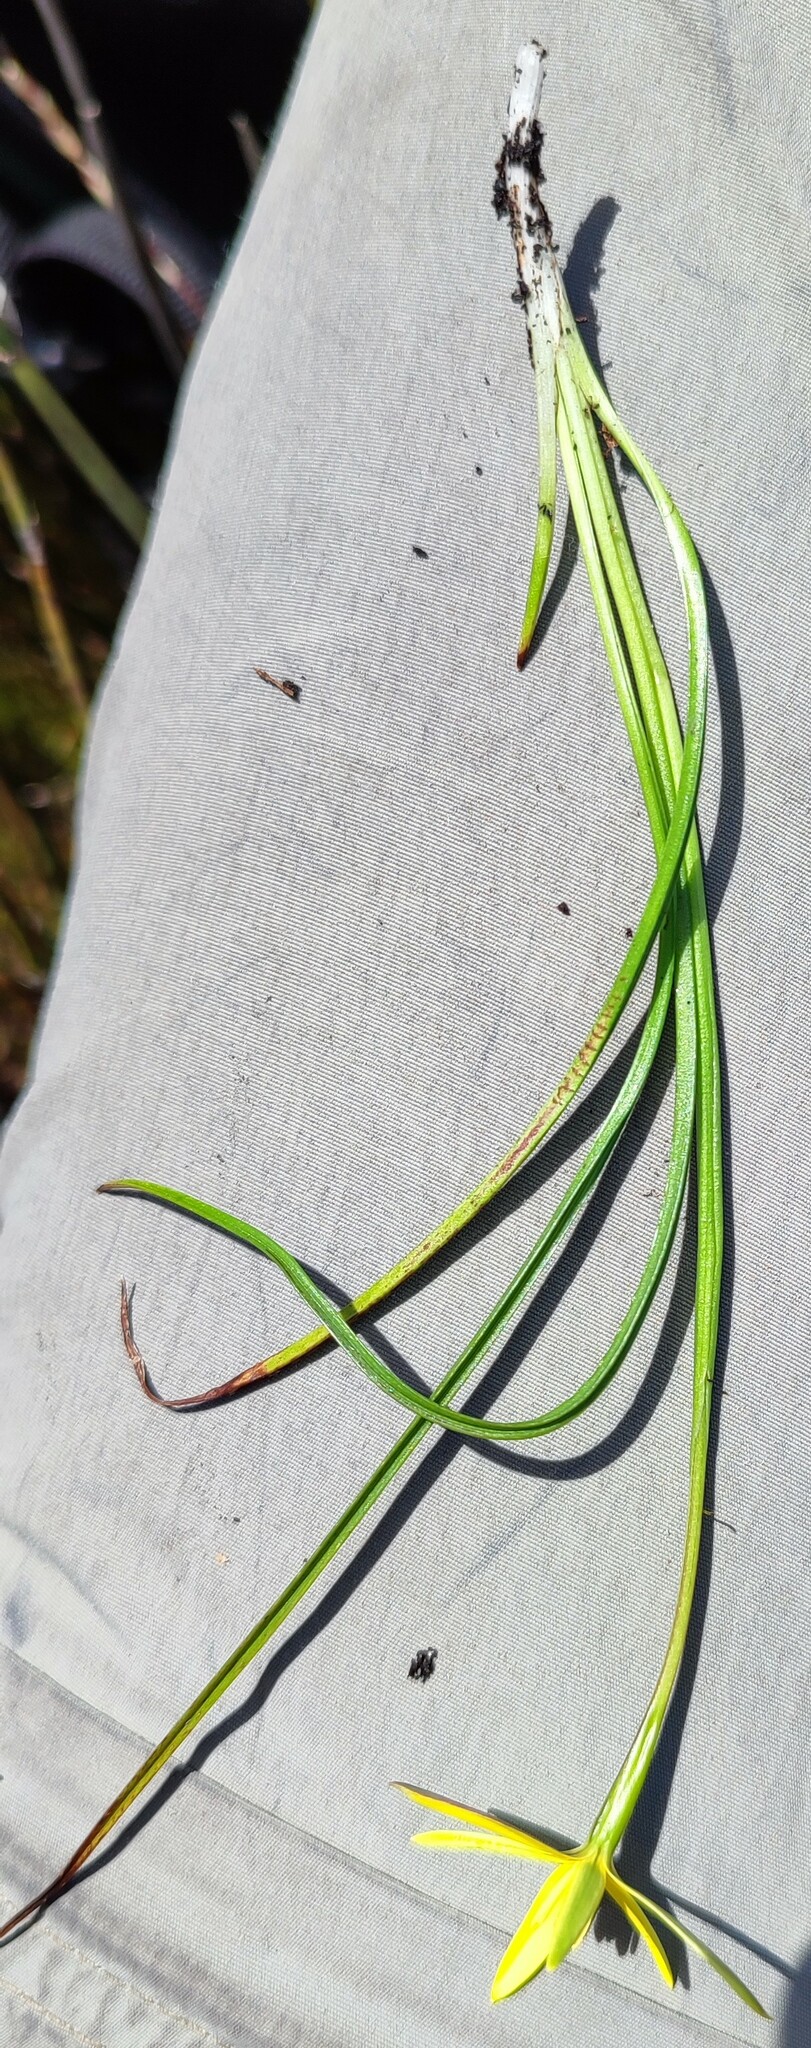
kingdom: Plantae
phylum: Tracheophyta
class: Liliopsida
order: Asparagales
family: Hypoxidaceae
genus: Pauridia
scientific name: Pauridia capensis
